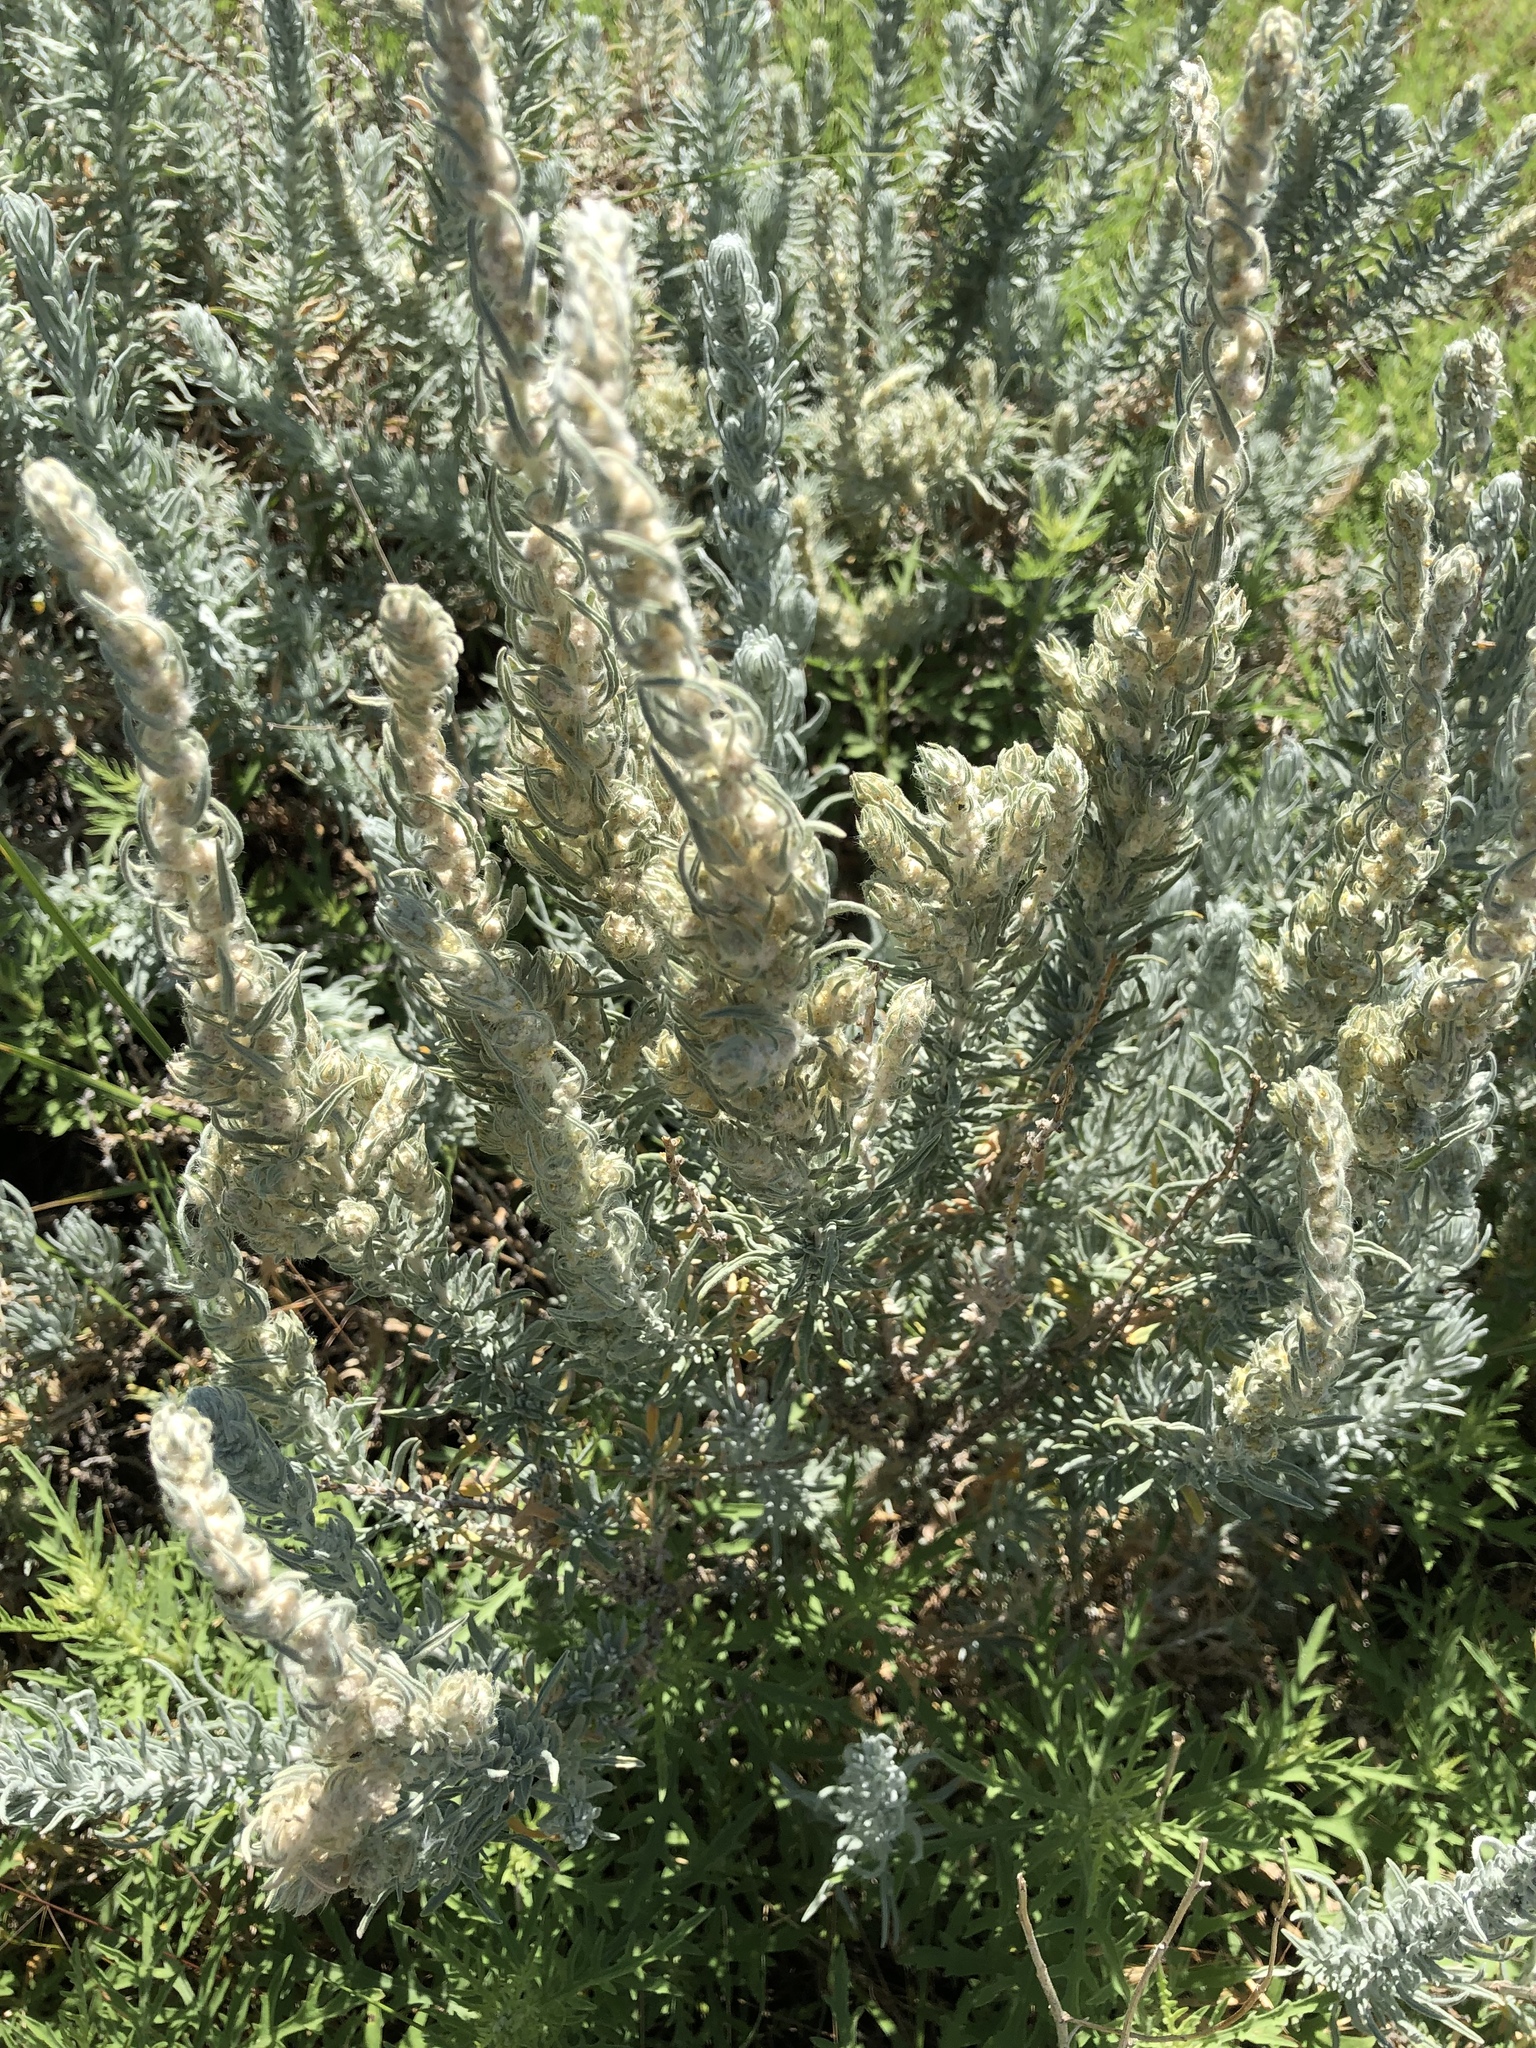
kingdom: Plantae
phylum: Tracheophyta
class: Magnoliopsida
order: Caryophyllales
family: Amaranthaceae
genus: Krascheninnikovia
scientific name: Krascheninnikovia lanata
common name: Winterfat
